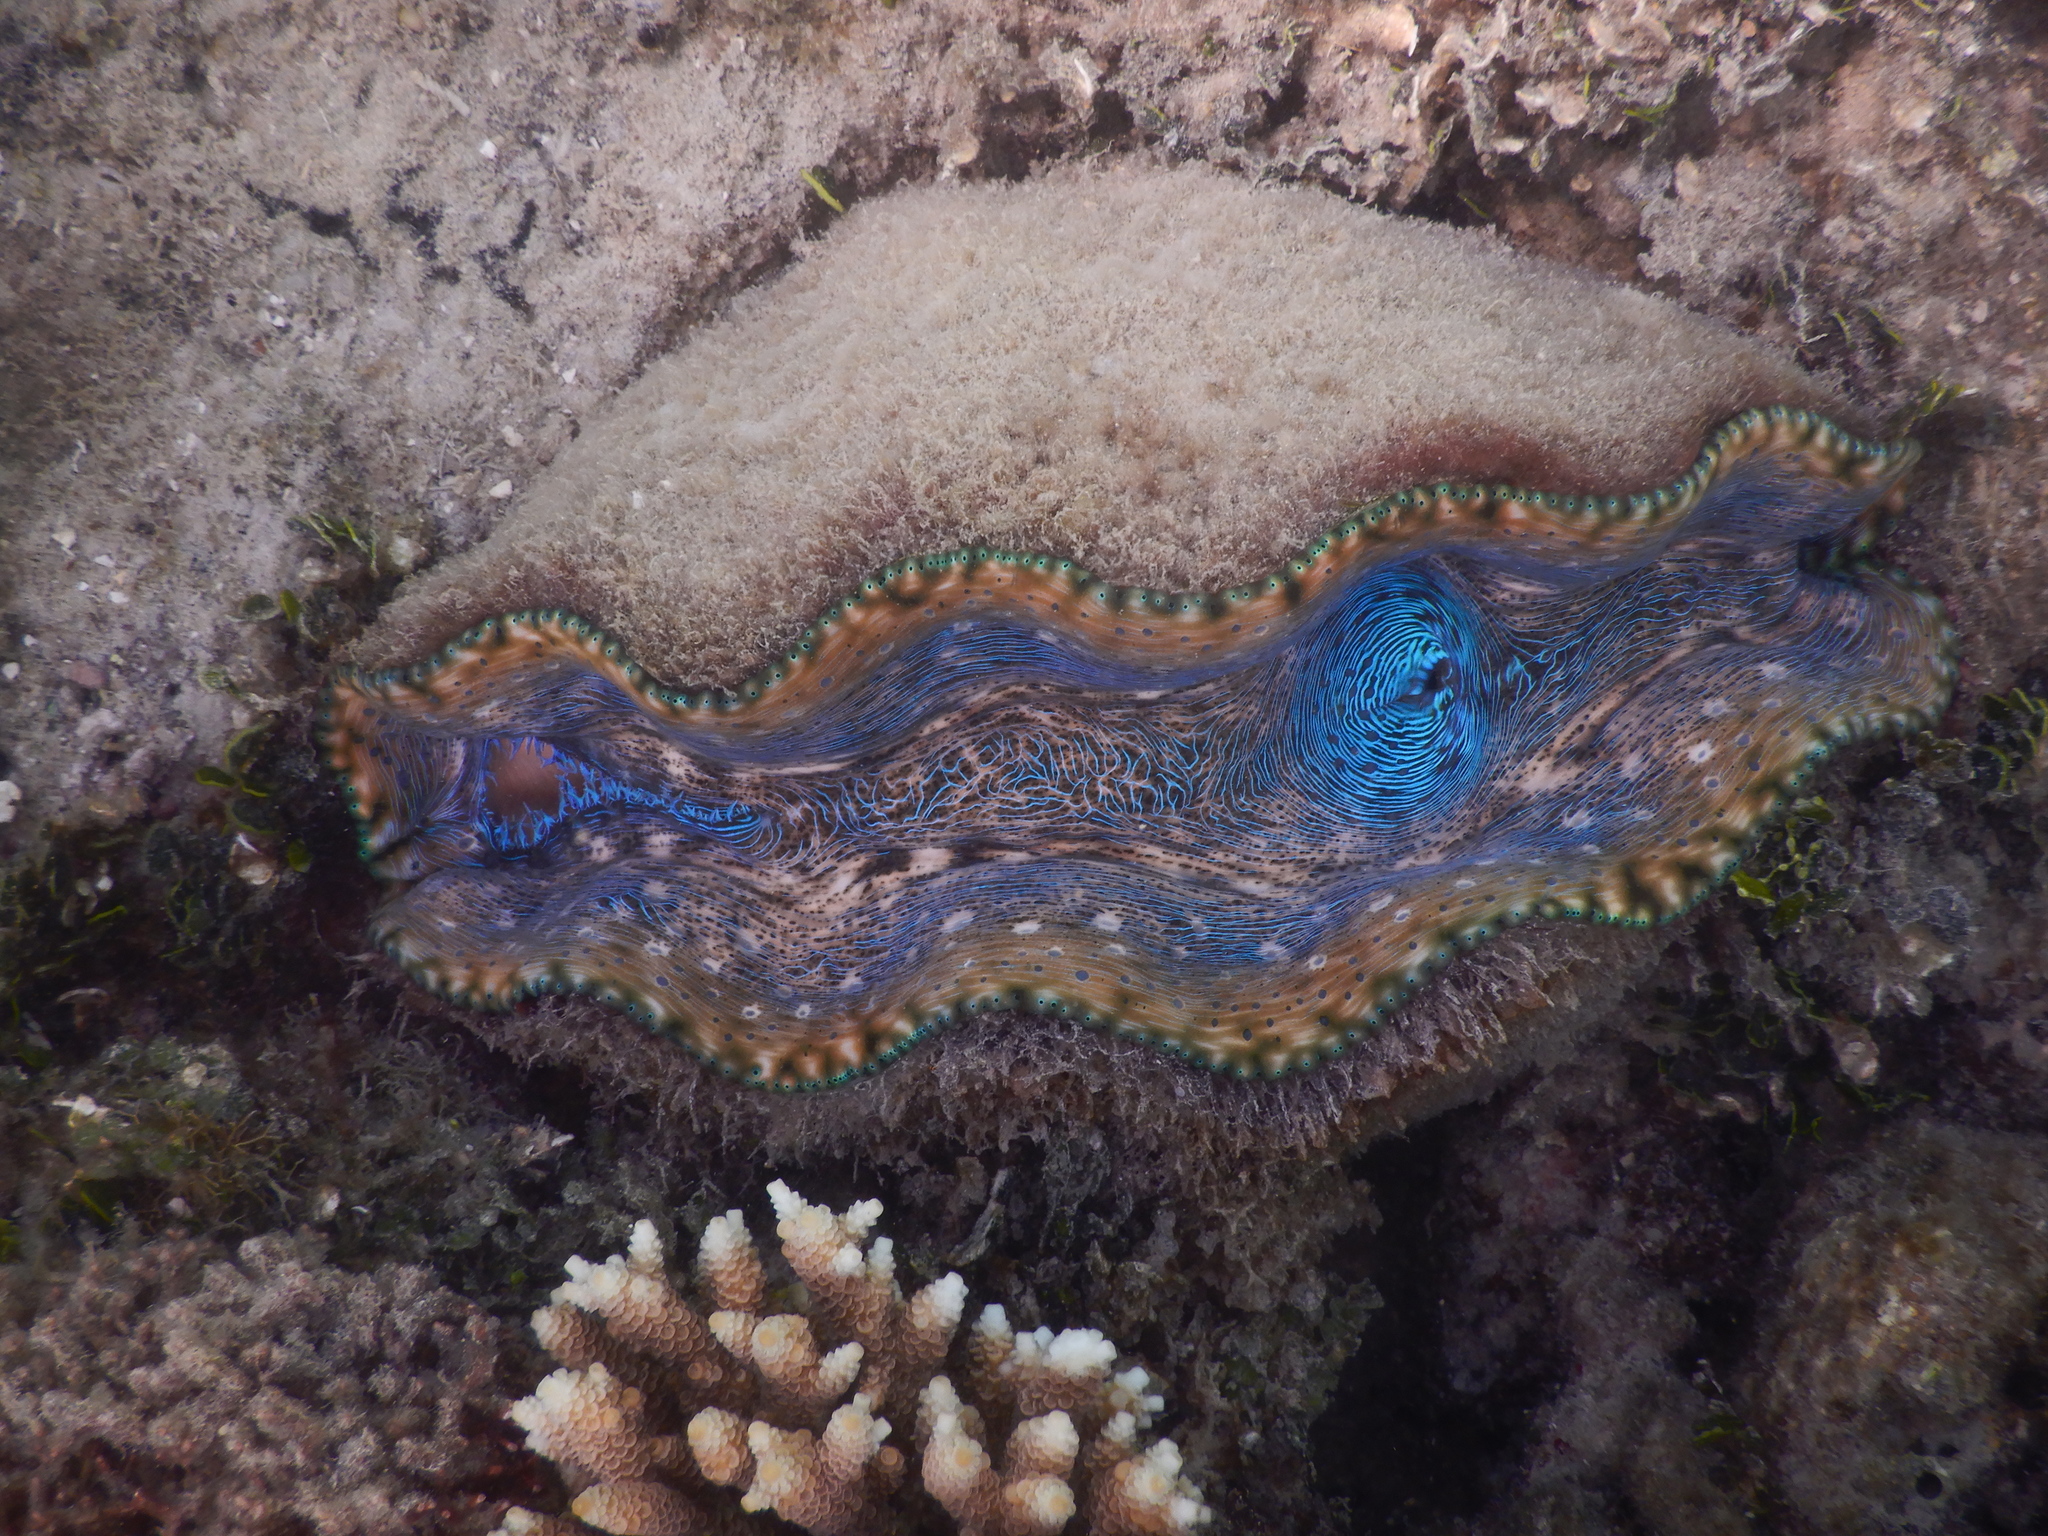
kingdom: Animalia
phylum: Mollusca
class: Bivalvia
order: Cardiida
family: Cardiidae
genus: Tridacna
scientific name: Tridacna derasa
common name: Southern giant clam
